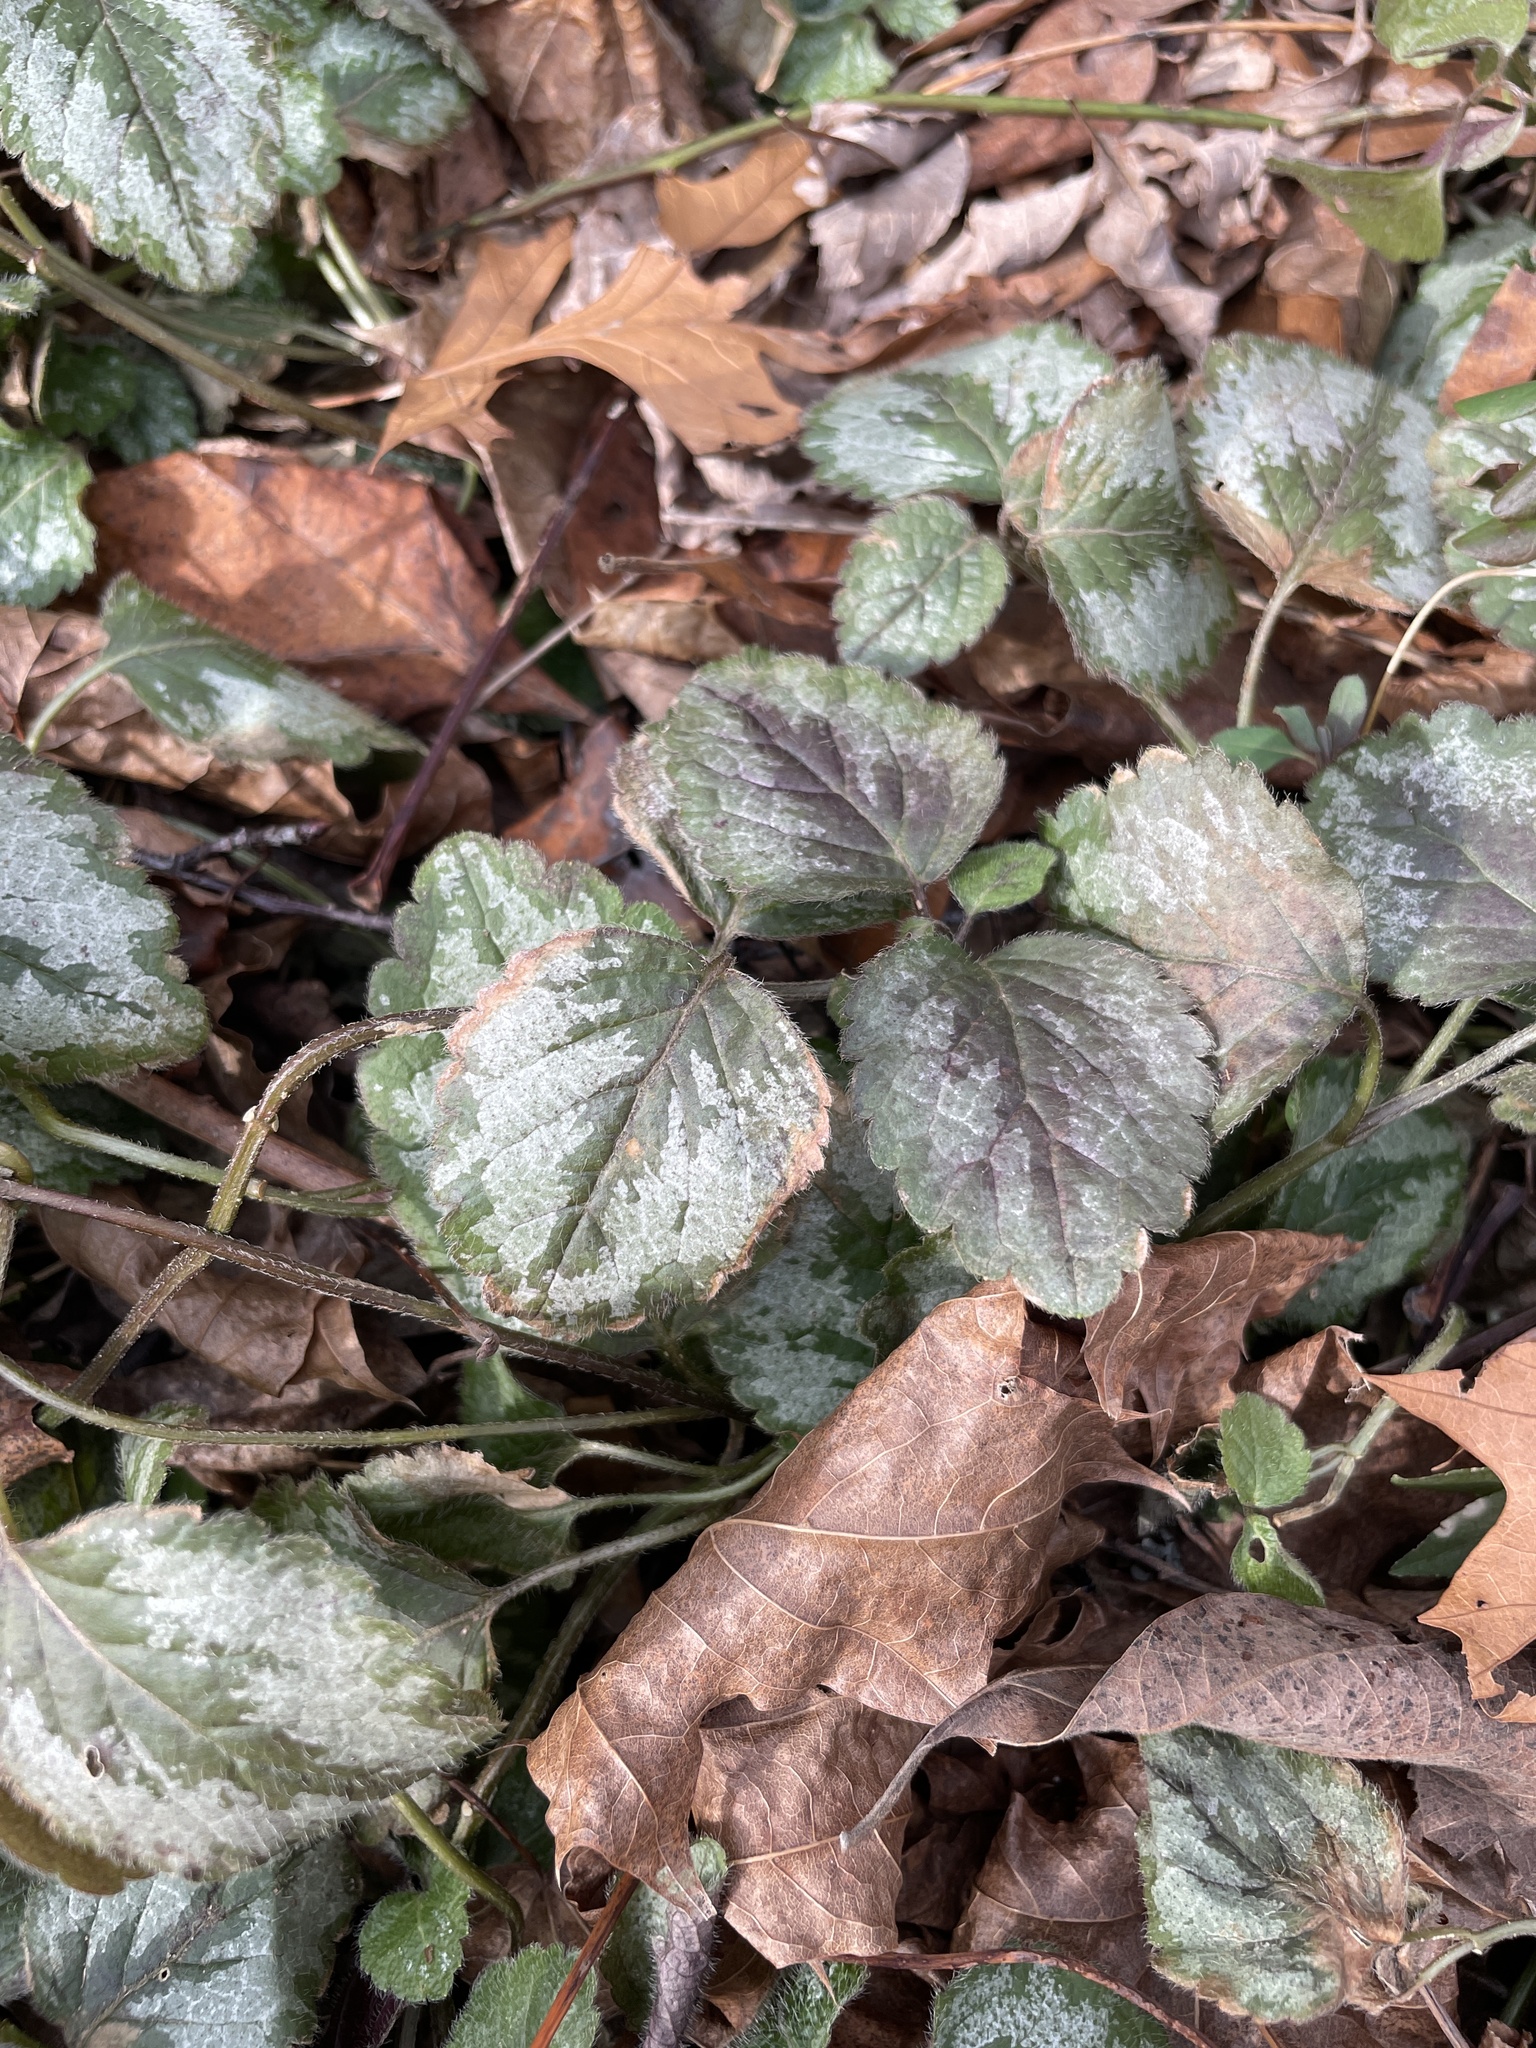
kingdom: Plantae
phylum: Tracheophyta
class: Magnoliopsida
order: Lamiales
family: Lamiaceae
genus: Lamium
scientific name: Lamium galeobdolon
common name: Yellow archangel
